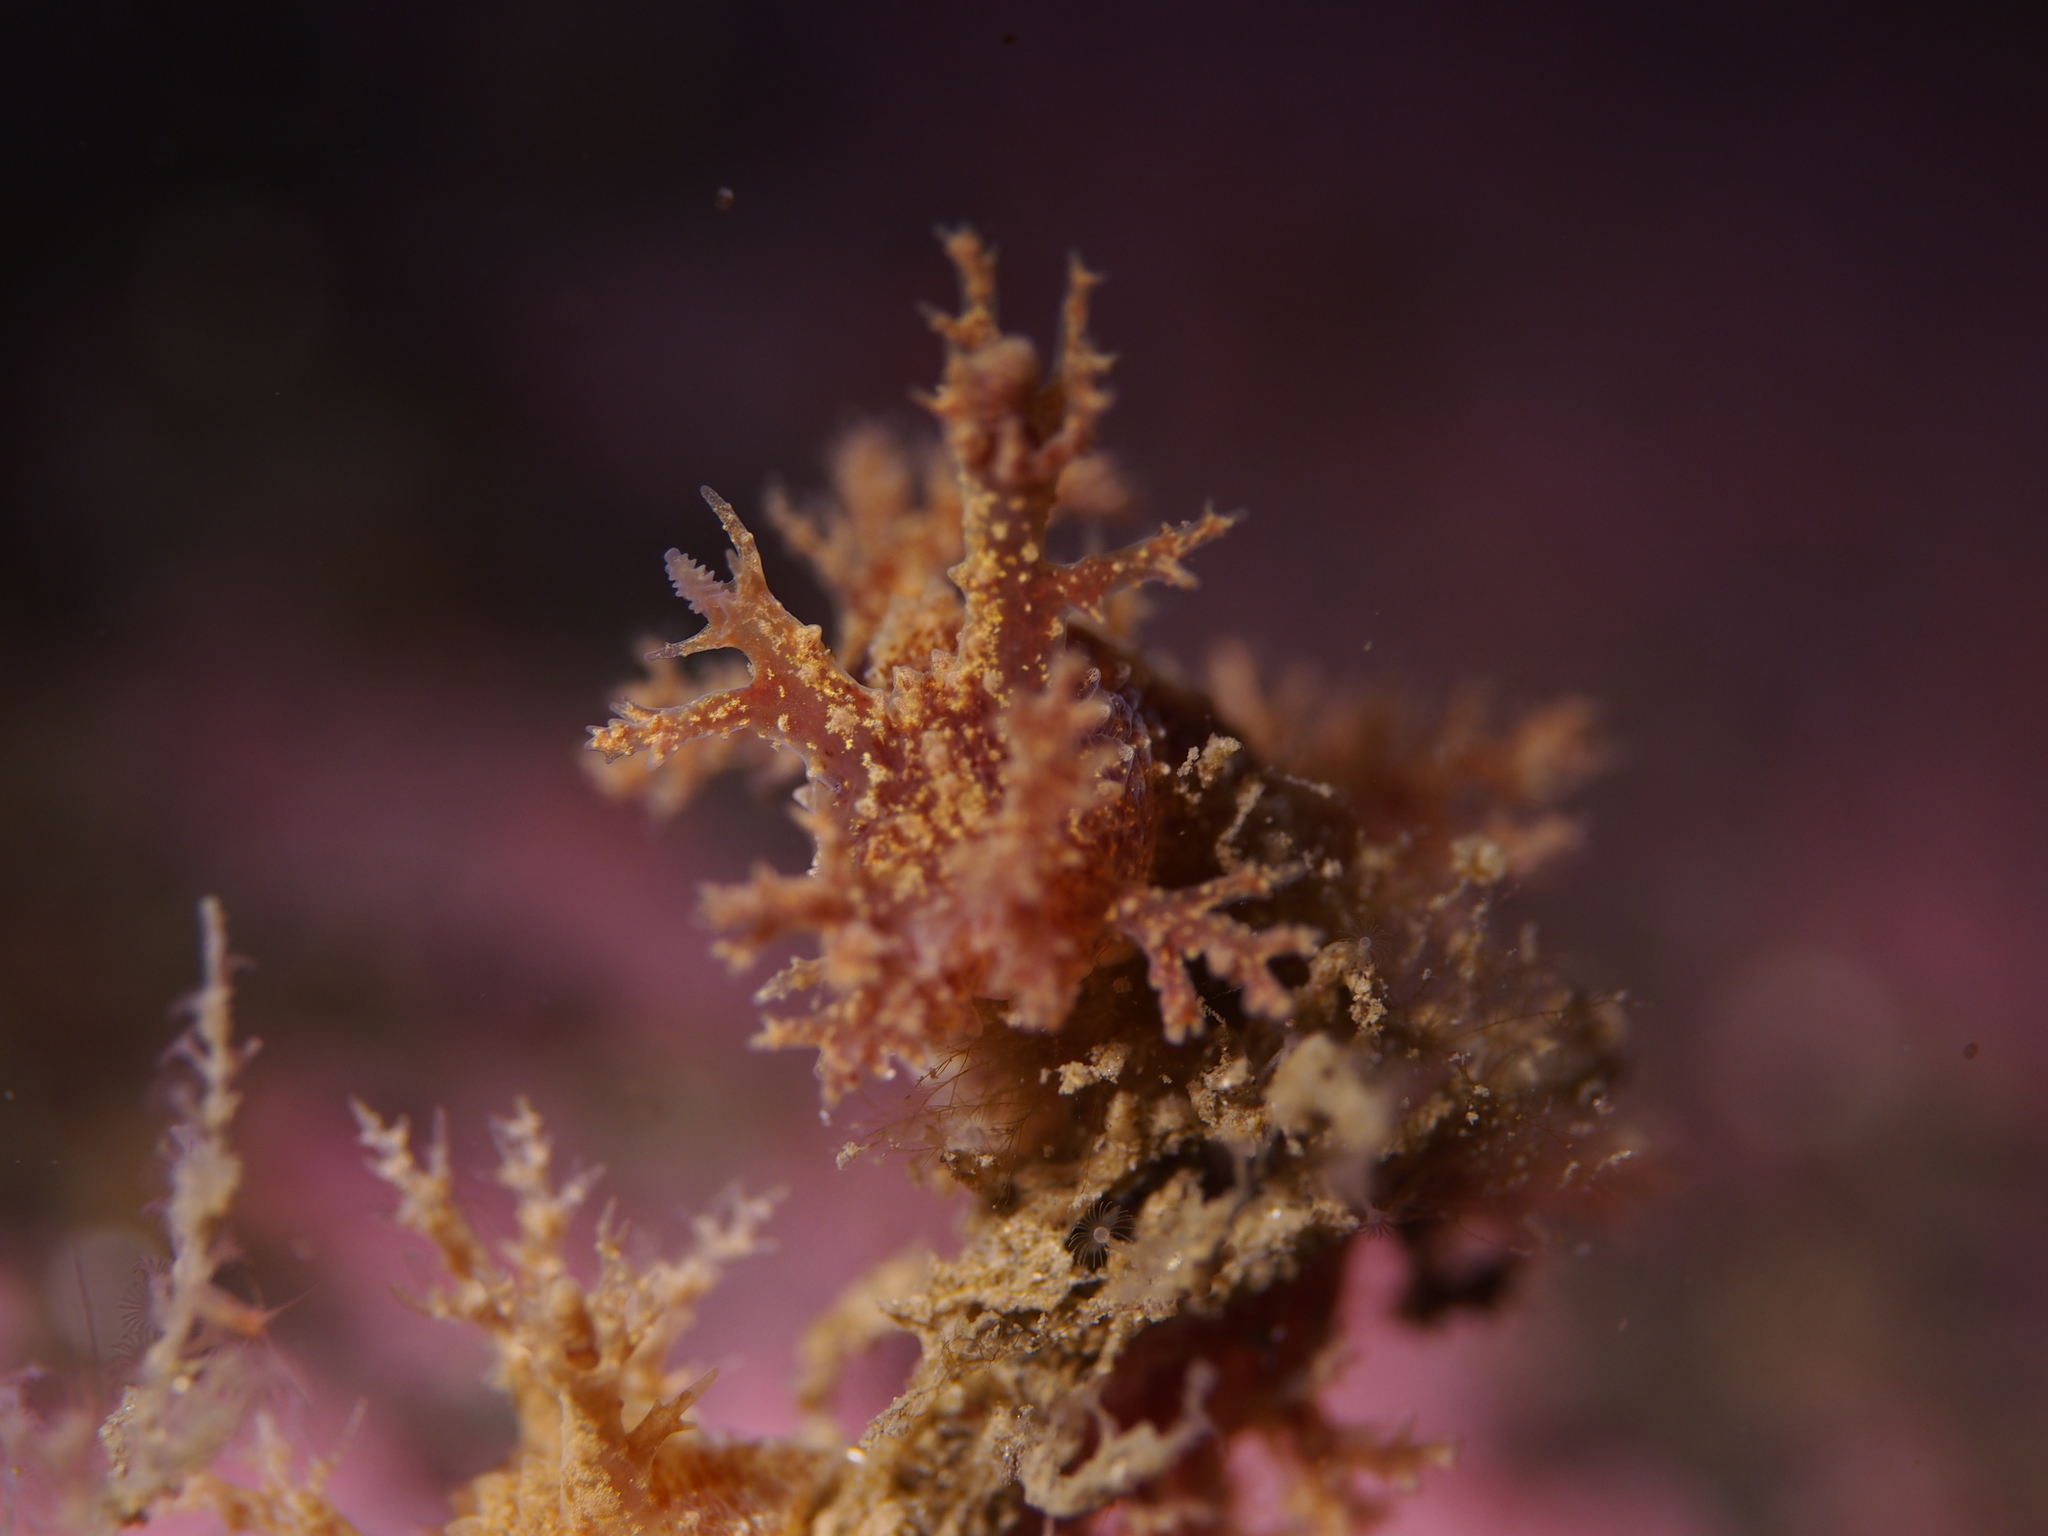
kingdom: Animalia
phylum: Mollusca
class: Gastropoda
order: Nudibranchia
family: Dendronotidae
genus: Dendronotus
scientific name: Dendronotus frondosus
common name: Bushy-backed nudibranch
